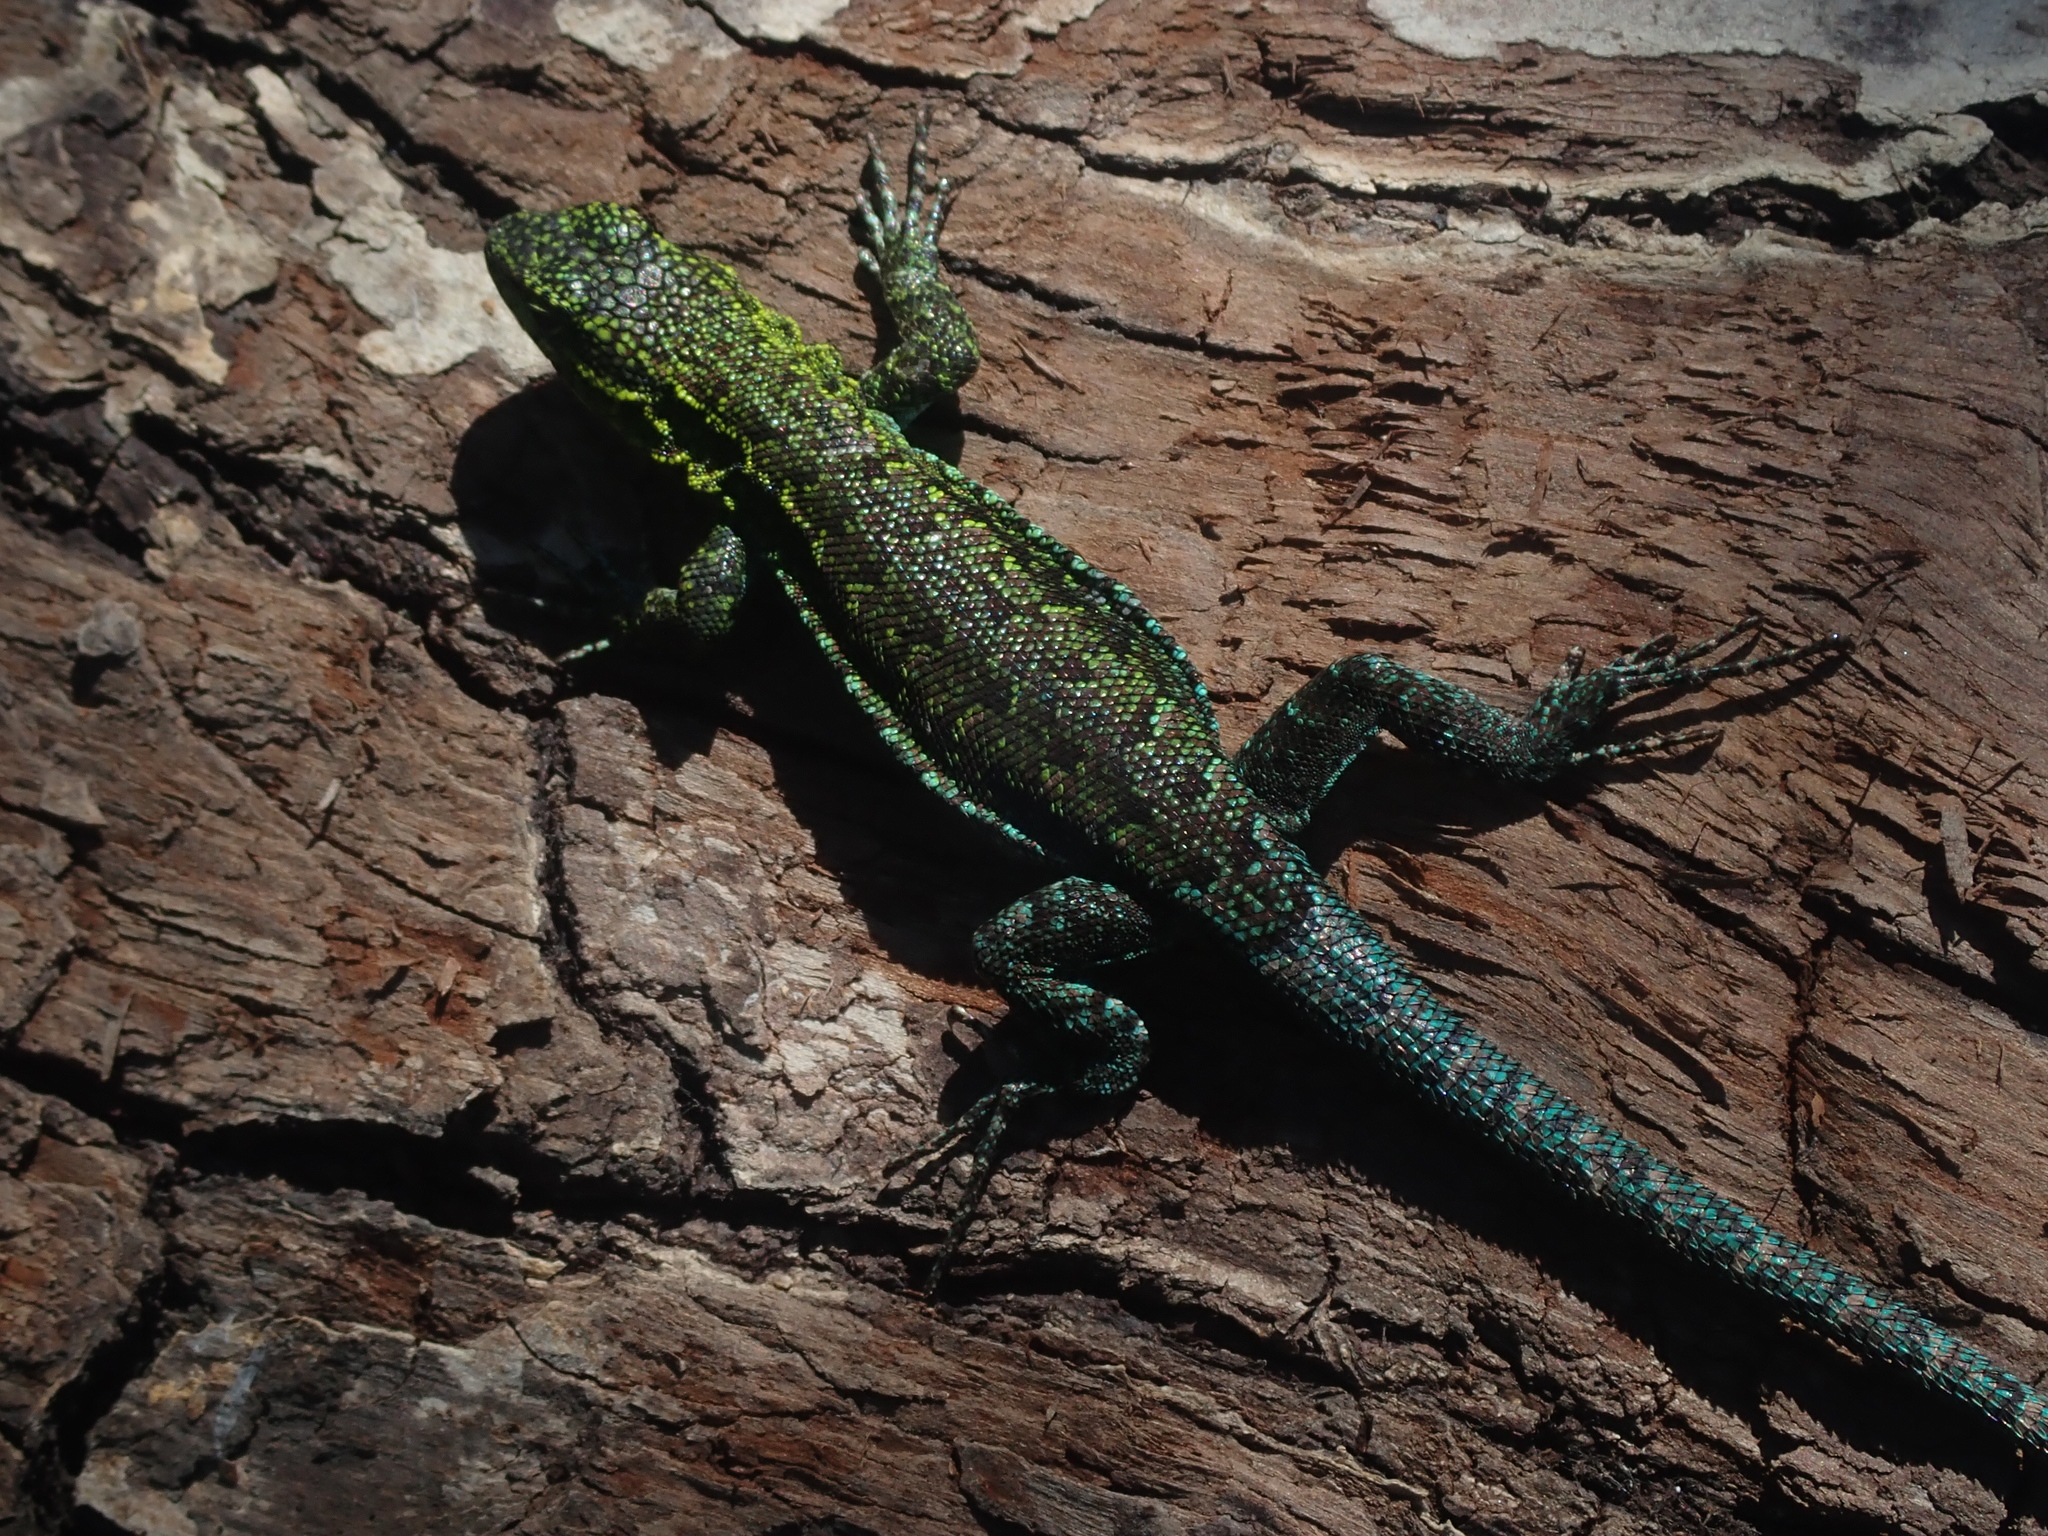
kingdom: Animalia
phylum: Chordata
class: Squamata
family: Liolaemidae
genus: Liolaemus
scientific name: Liolaemus tenuis
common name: Thin tree iguana
